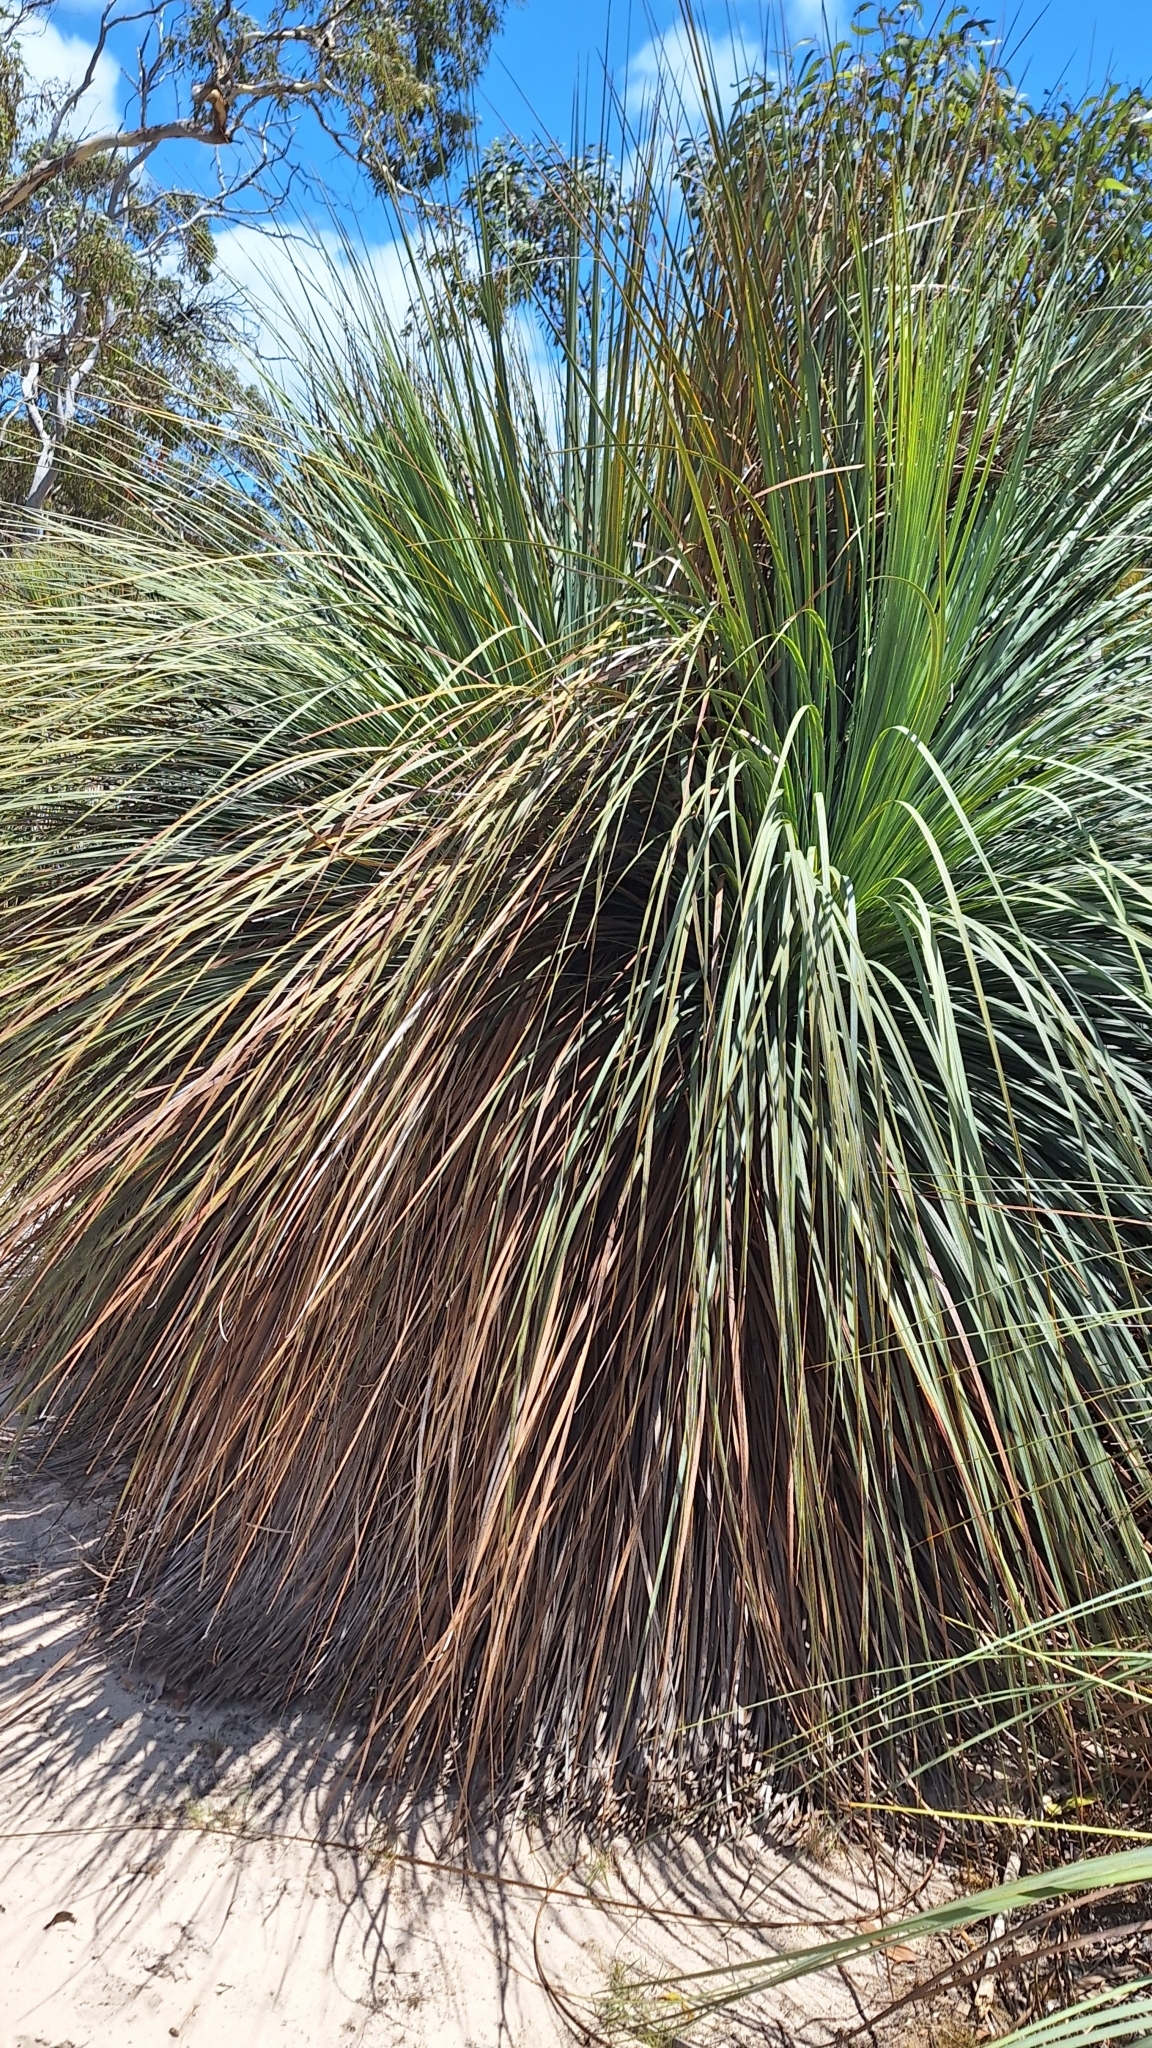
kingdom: Plantae
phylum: Tracheophyta
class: Liliopsida
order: Asparagales
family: Asphodelaceae
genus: Xanthorrhoea
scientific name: Xanthorrhoea semiplana
